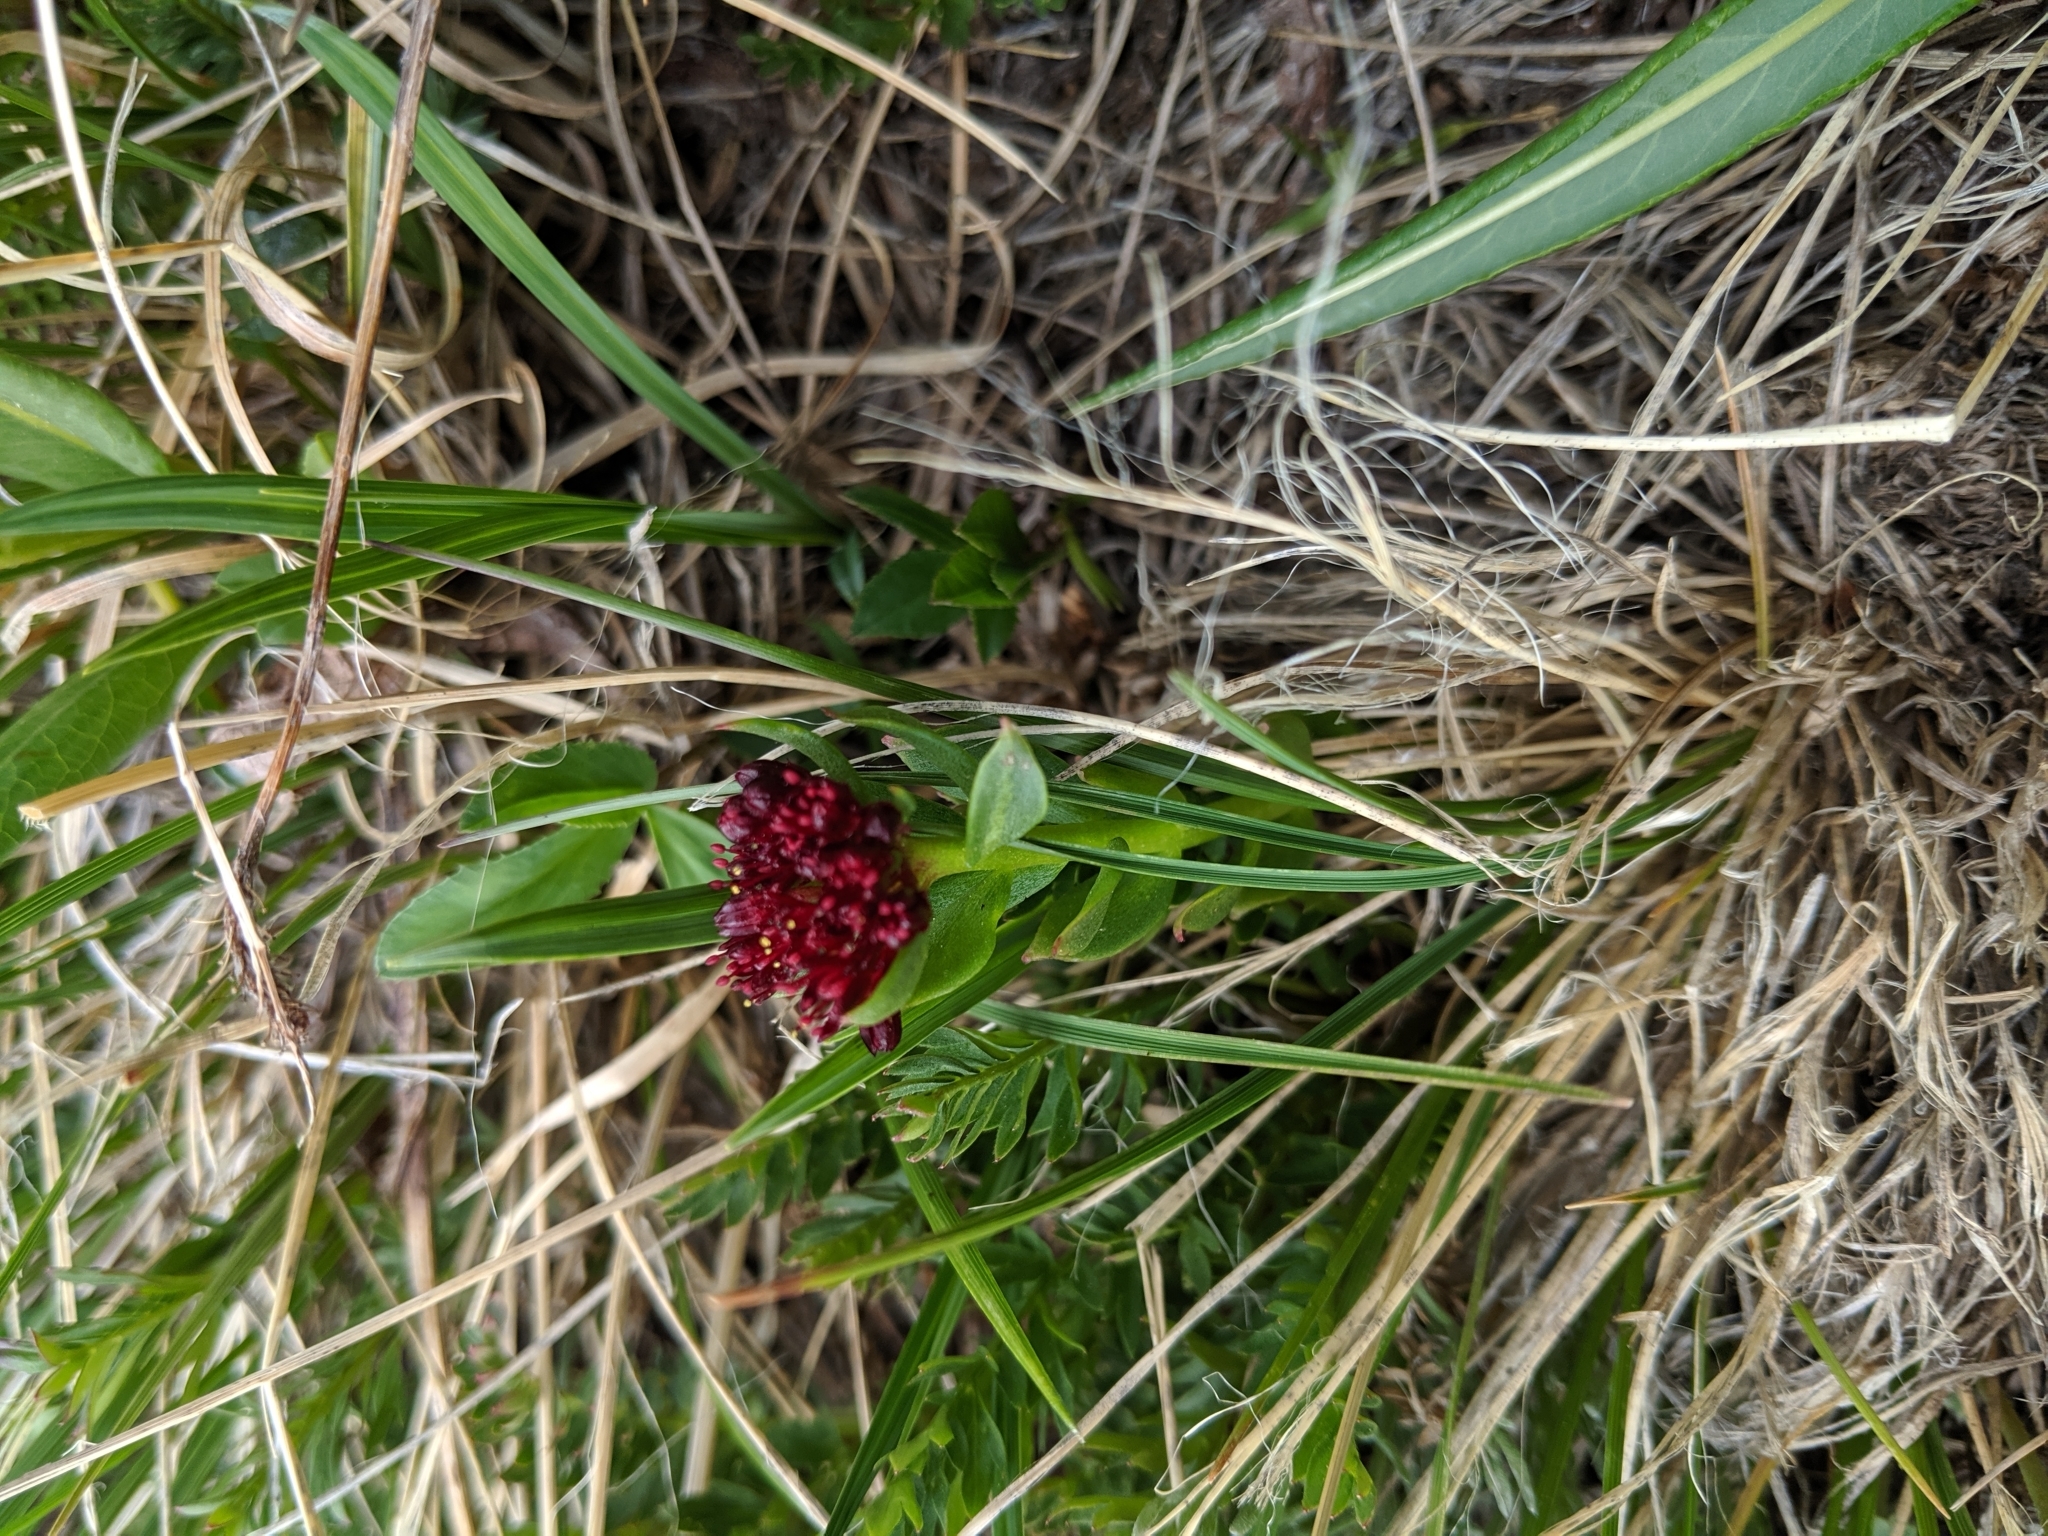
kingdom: Plantae
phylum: Tracheophyta
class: Magnoliopsida
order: Saxifragales
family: Crassulaceae
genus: Rhodiola
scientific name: Rhodiola integrifolia
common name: Western roseroot
